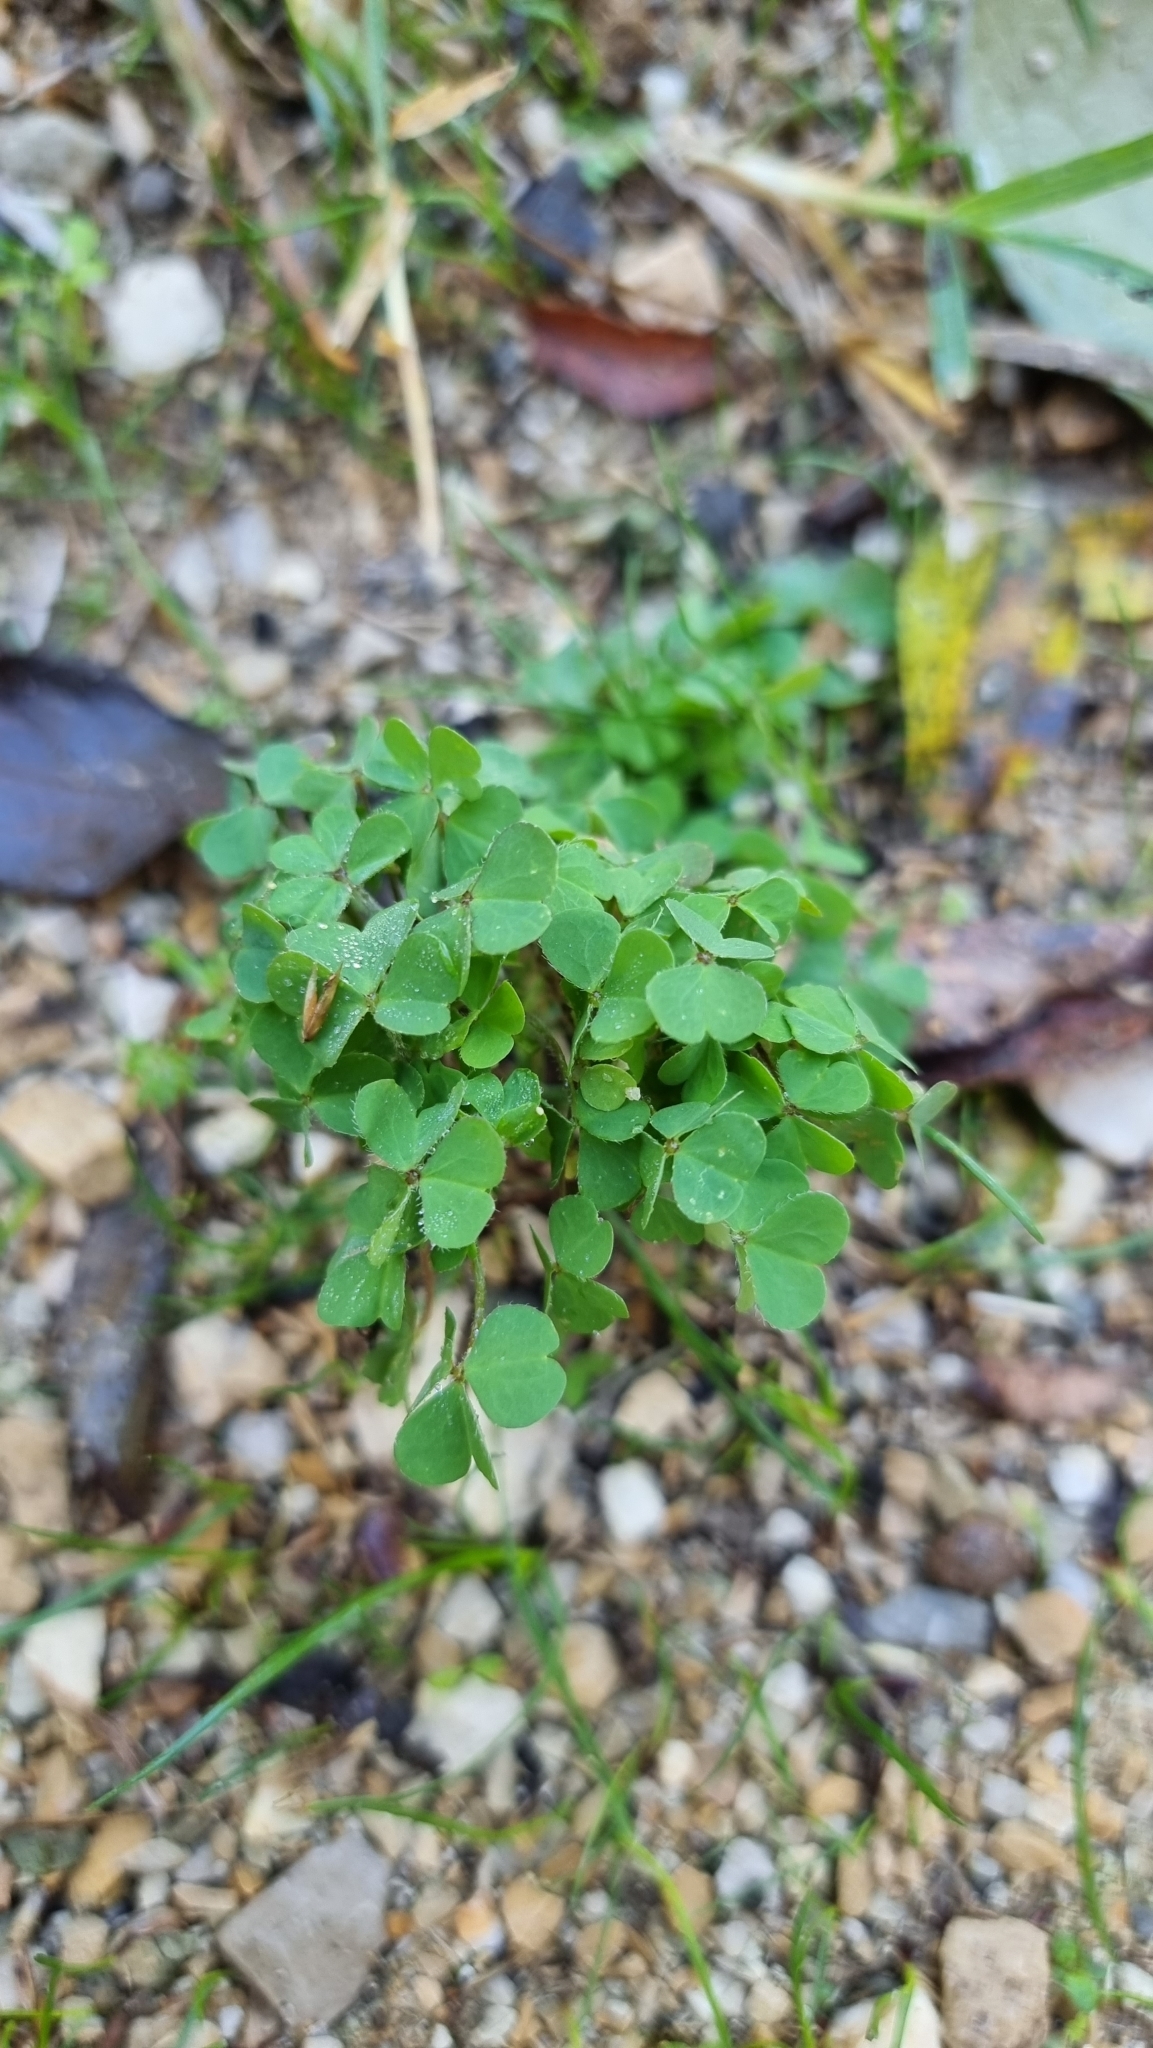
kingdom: Plantae
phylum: Tracheophyta
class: Magnoliopsida
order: Oxalidales
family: Oxalidaceae
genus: Oxalis
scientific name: Oxalis corniculata
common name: Procumbent yellow-sorrel
